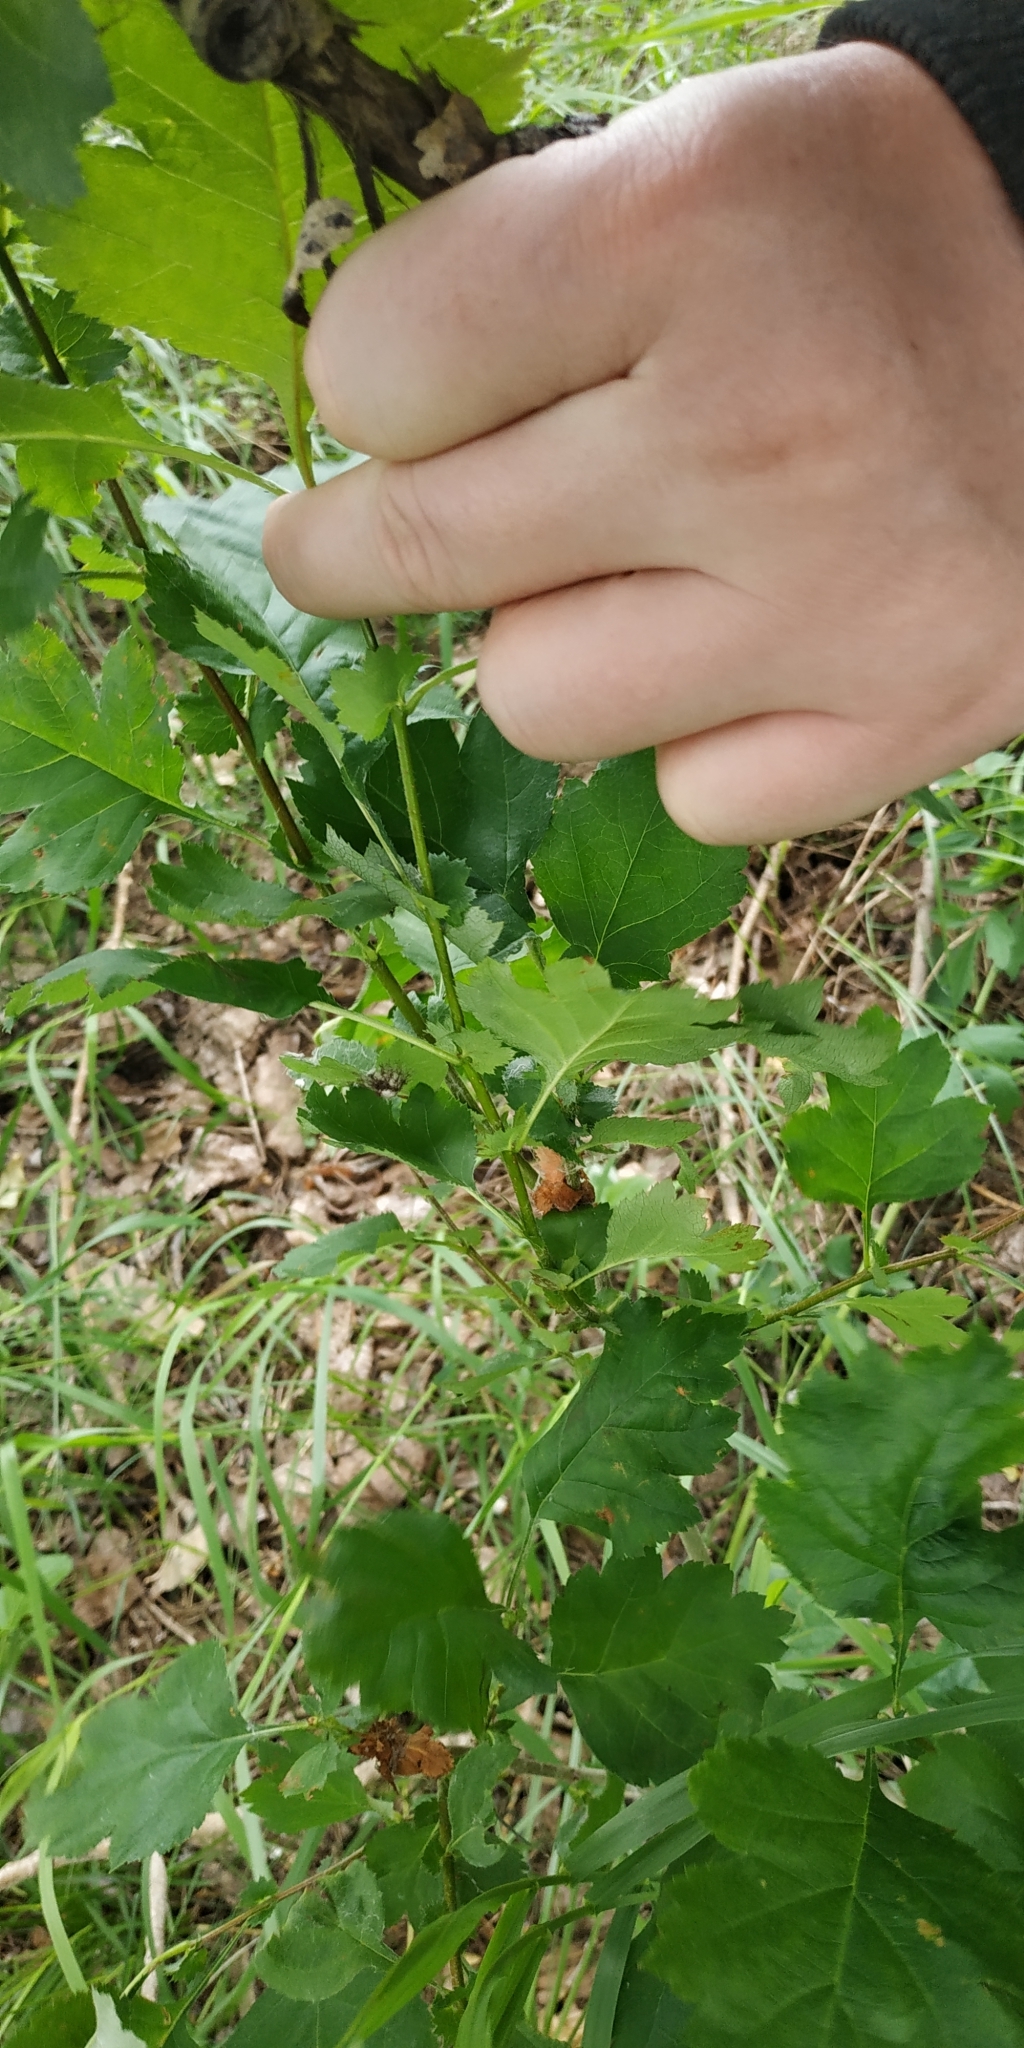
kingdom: Plantae
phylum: Tracheophyta
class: Magnoliopsida
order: Rosales
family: Rosaceae
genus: Crataegus
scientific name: Crataegus sanguinea
